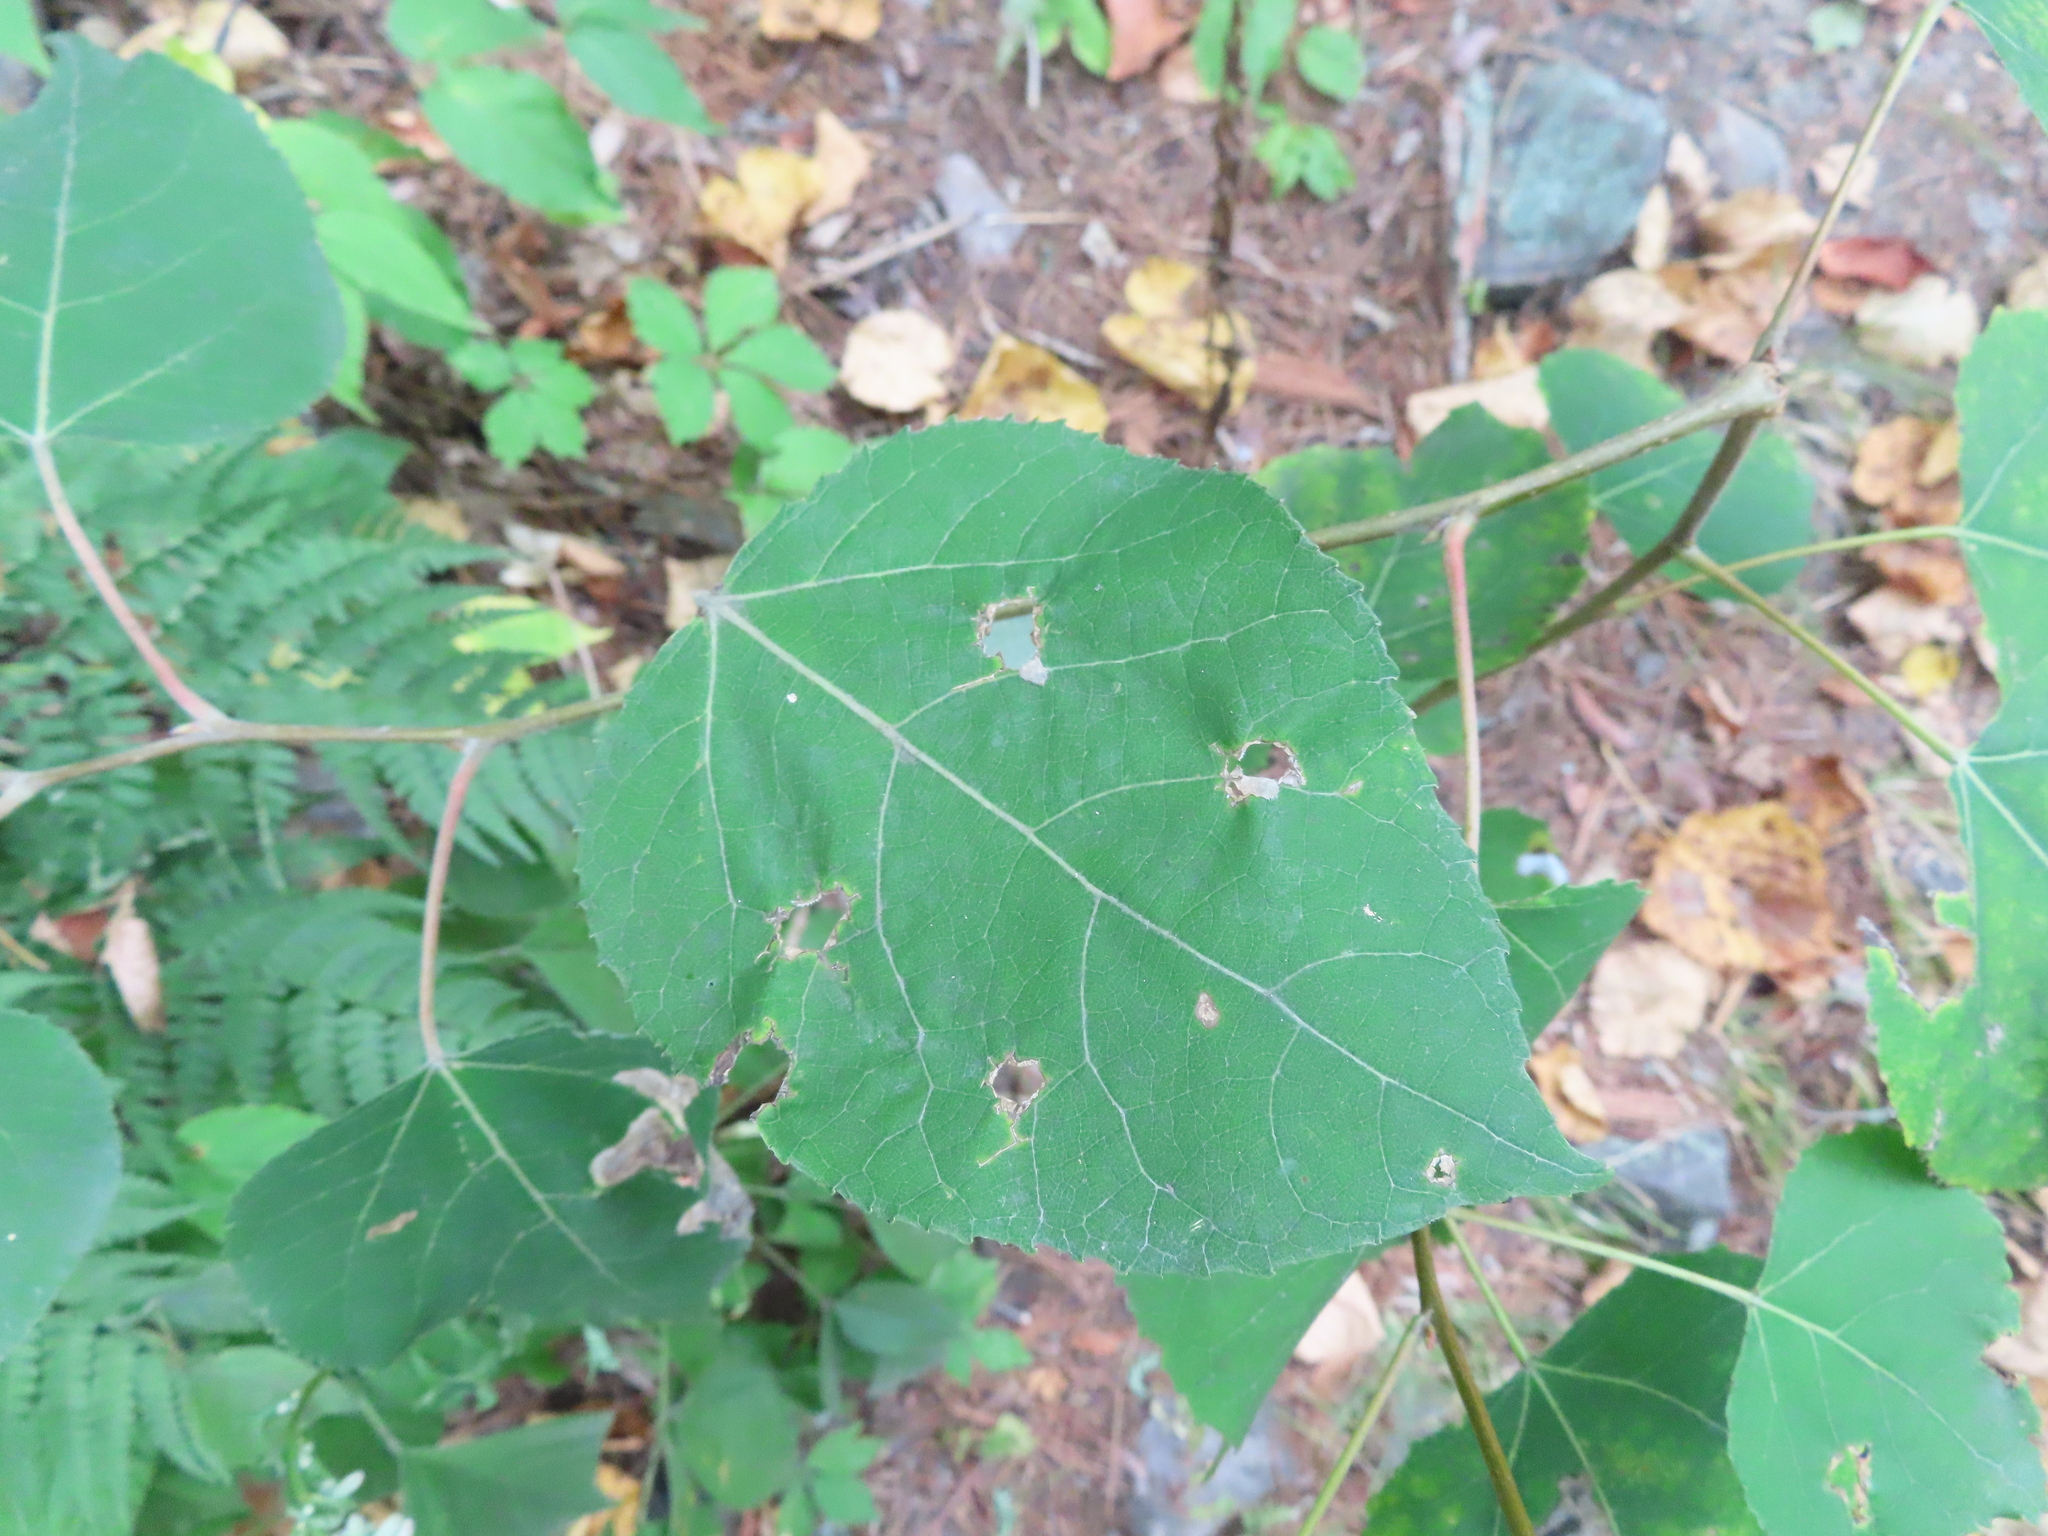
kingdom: Plantae
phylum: Tracheophyta
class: Magnoliopsida
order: Malpighiales
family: Salicaceae
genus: Populus
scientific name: Populus tremuloides
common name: Quaking aspen
